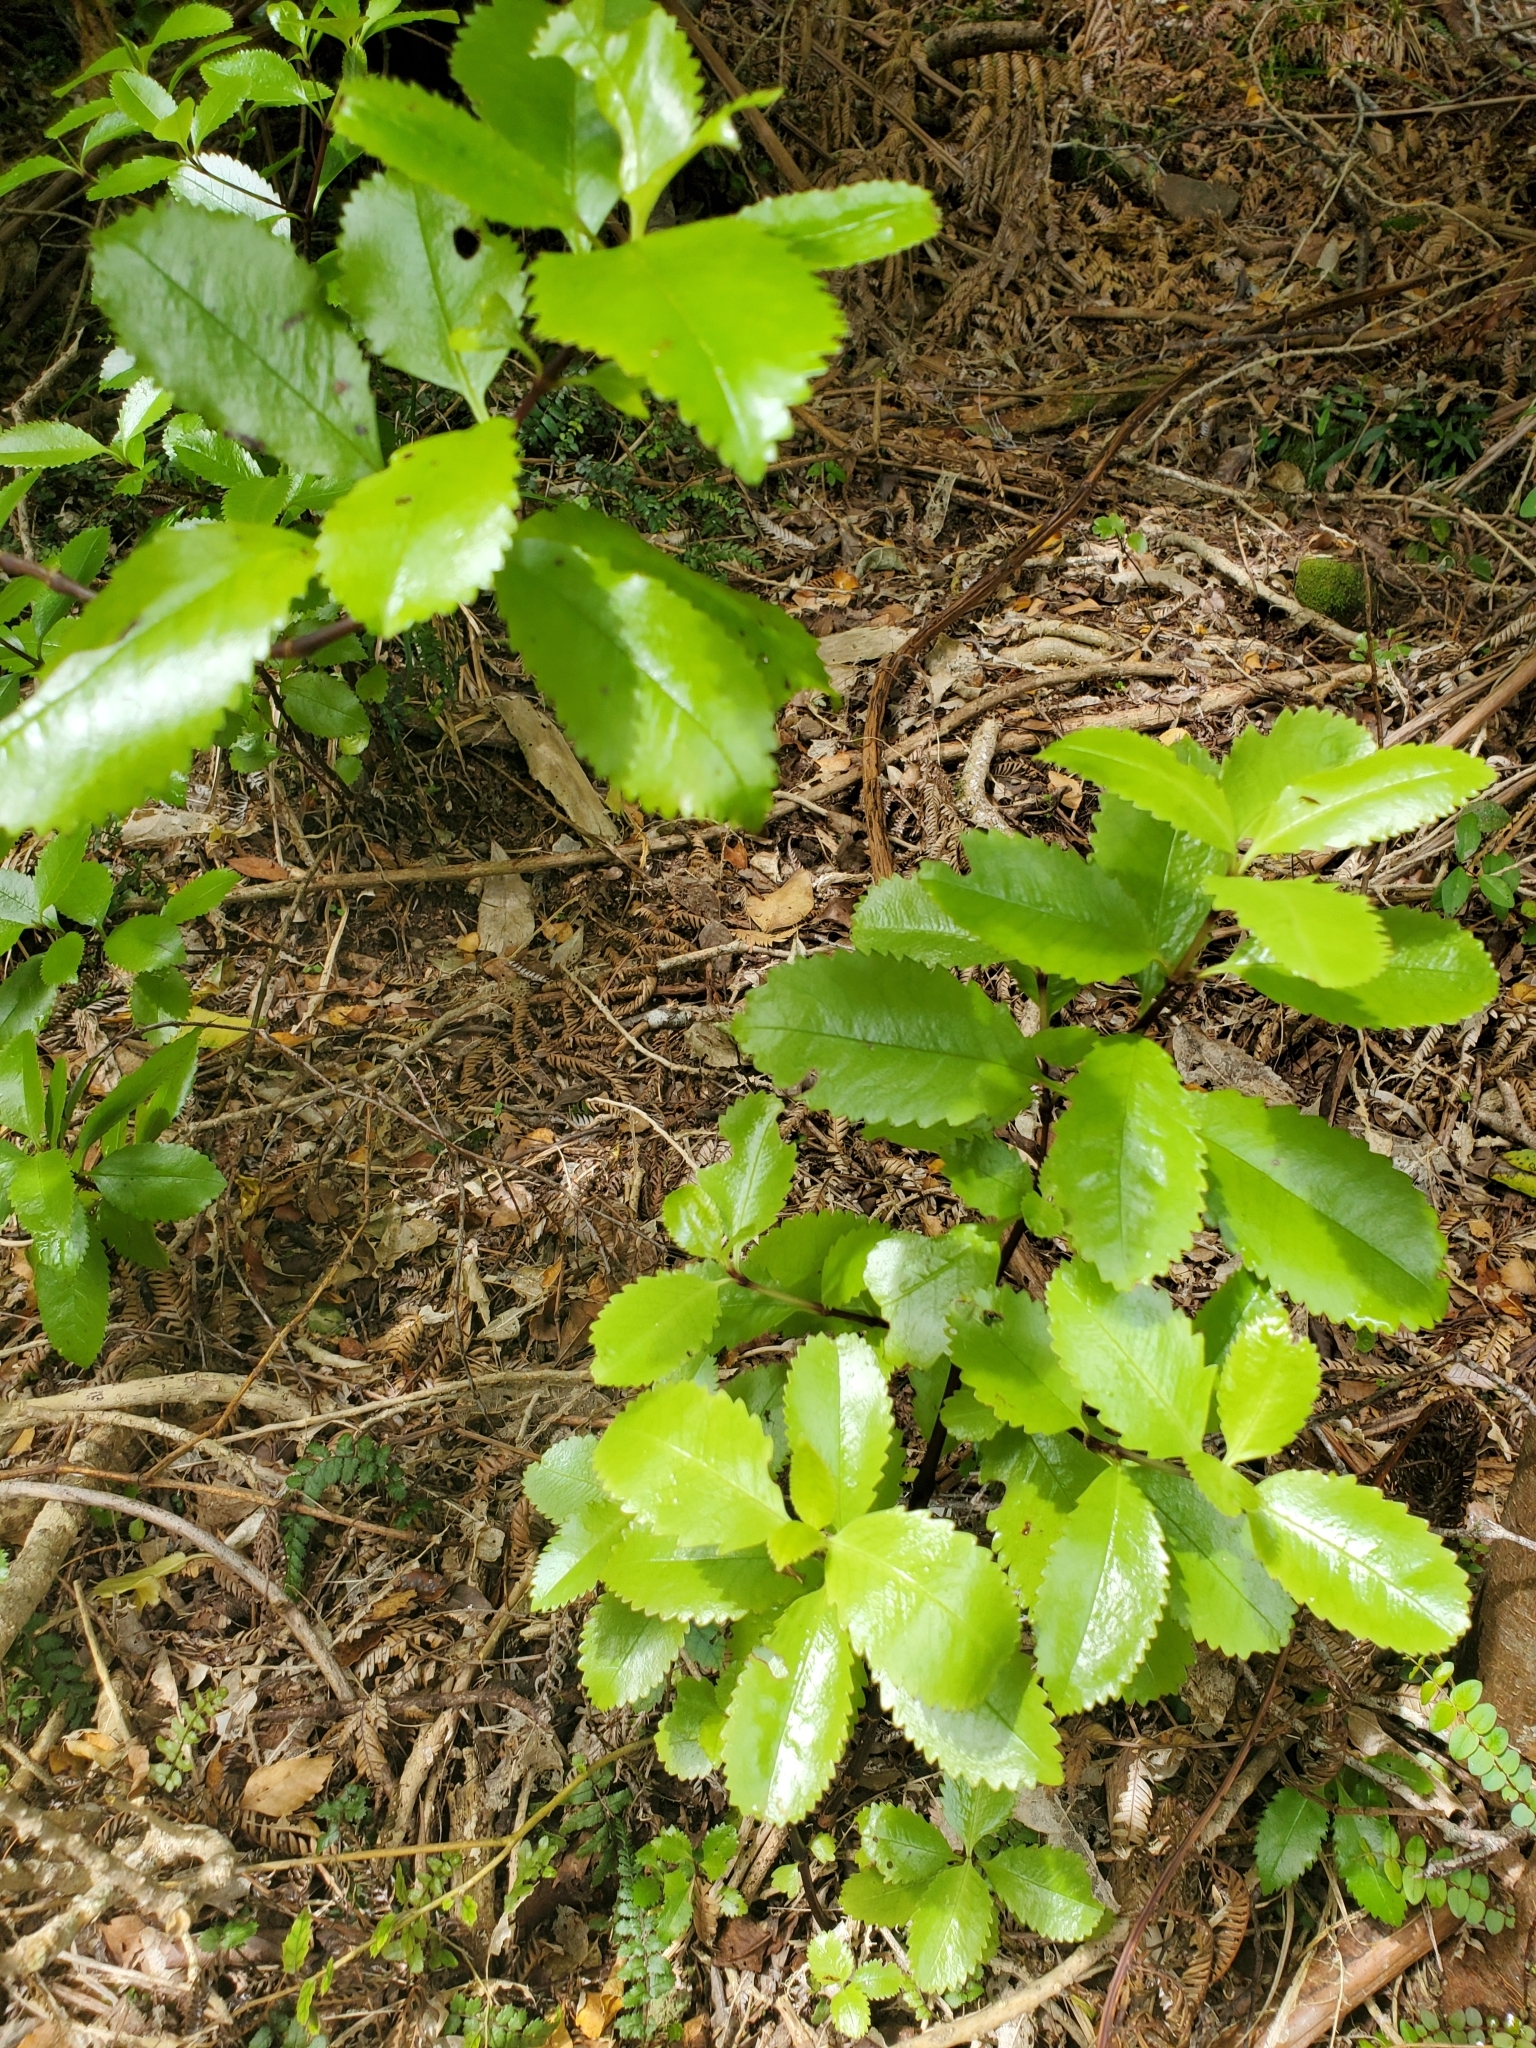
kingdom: Plantae
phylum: Tracheophyta
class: Magnoliopsida
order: Laurales
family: Atherospermataceae
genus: Laurelia
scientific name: Laurelia novae-zelandiae
